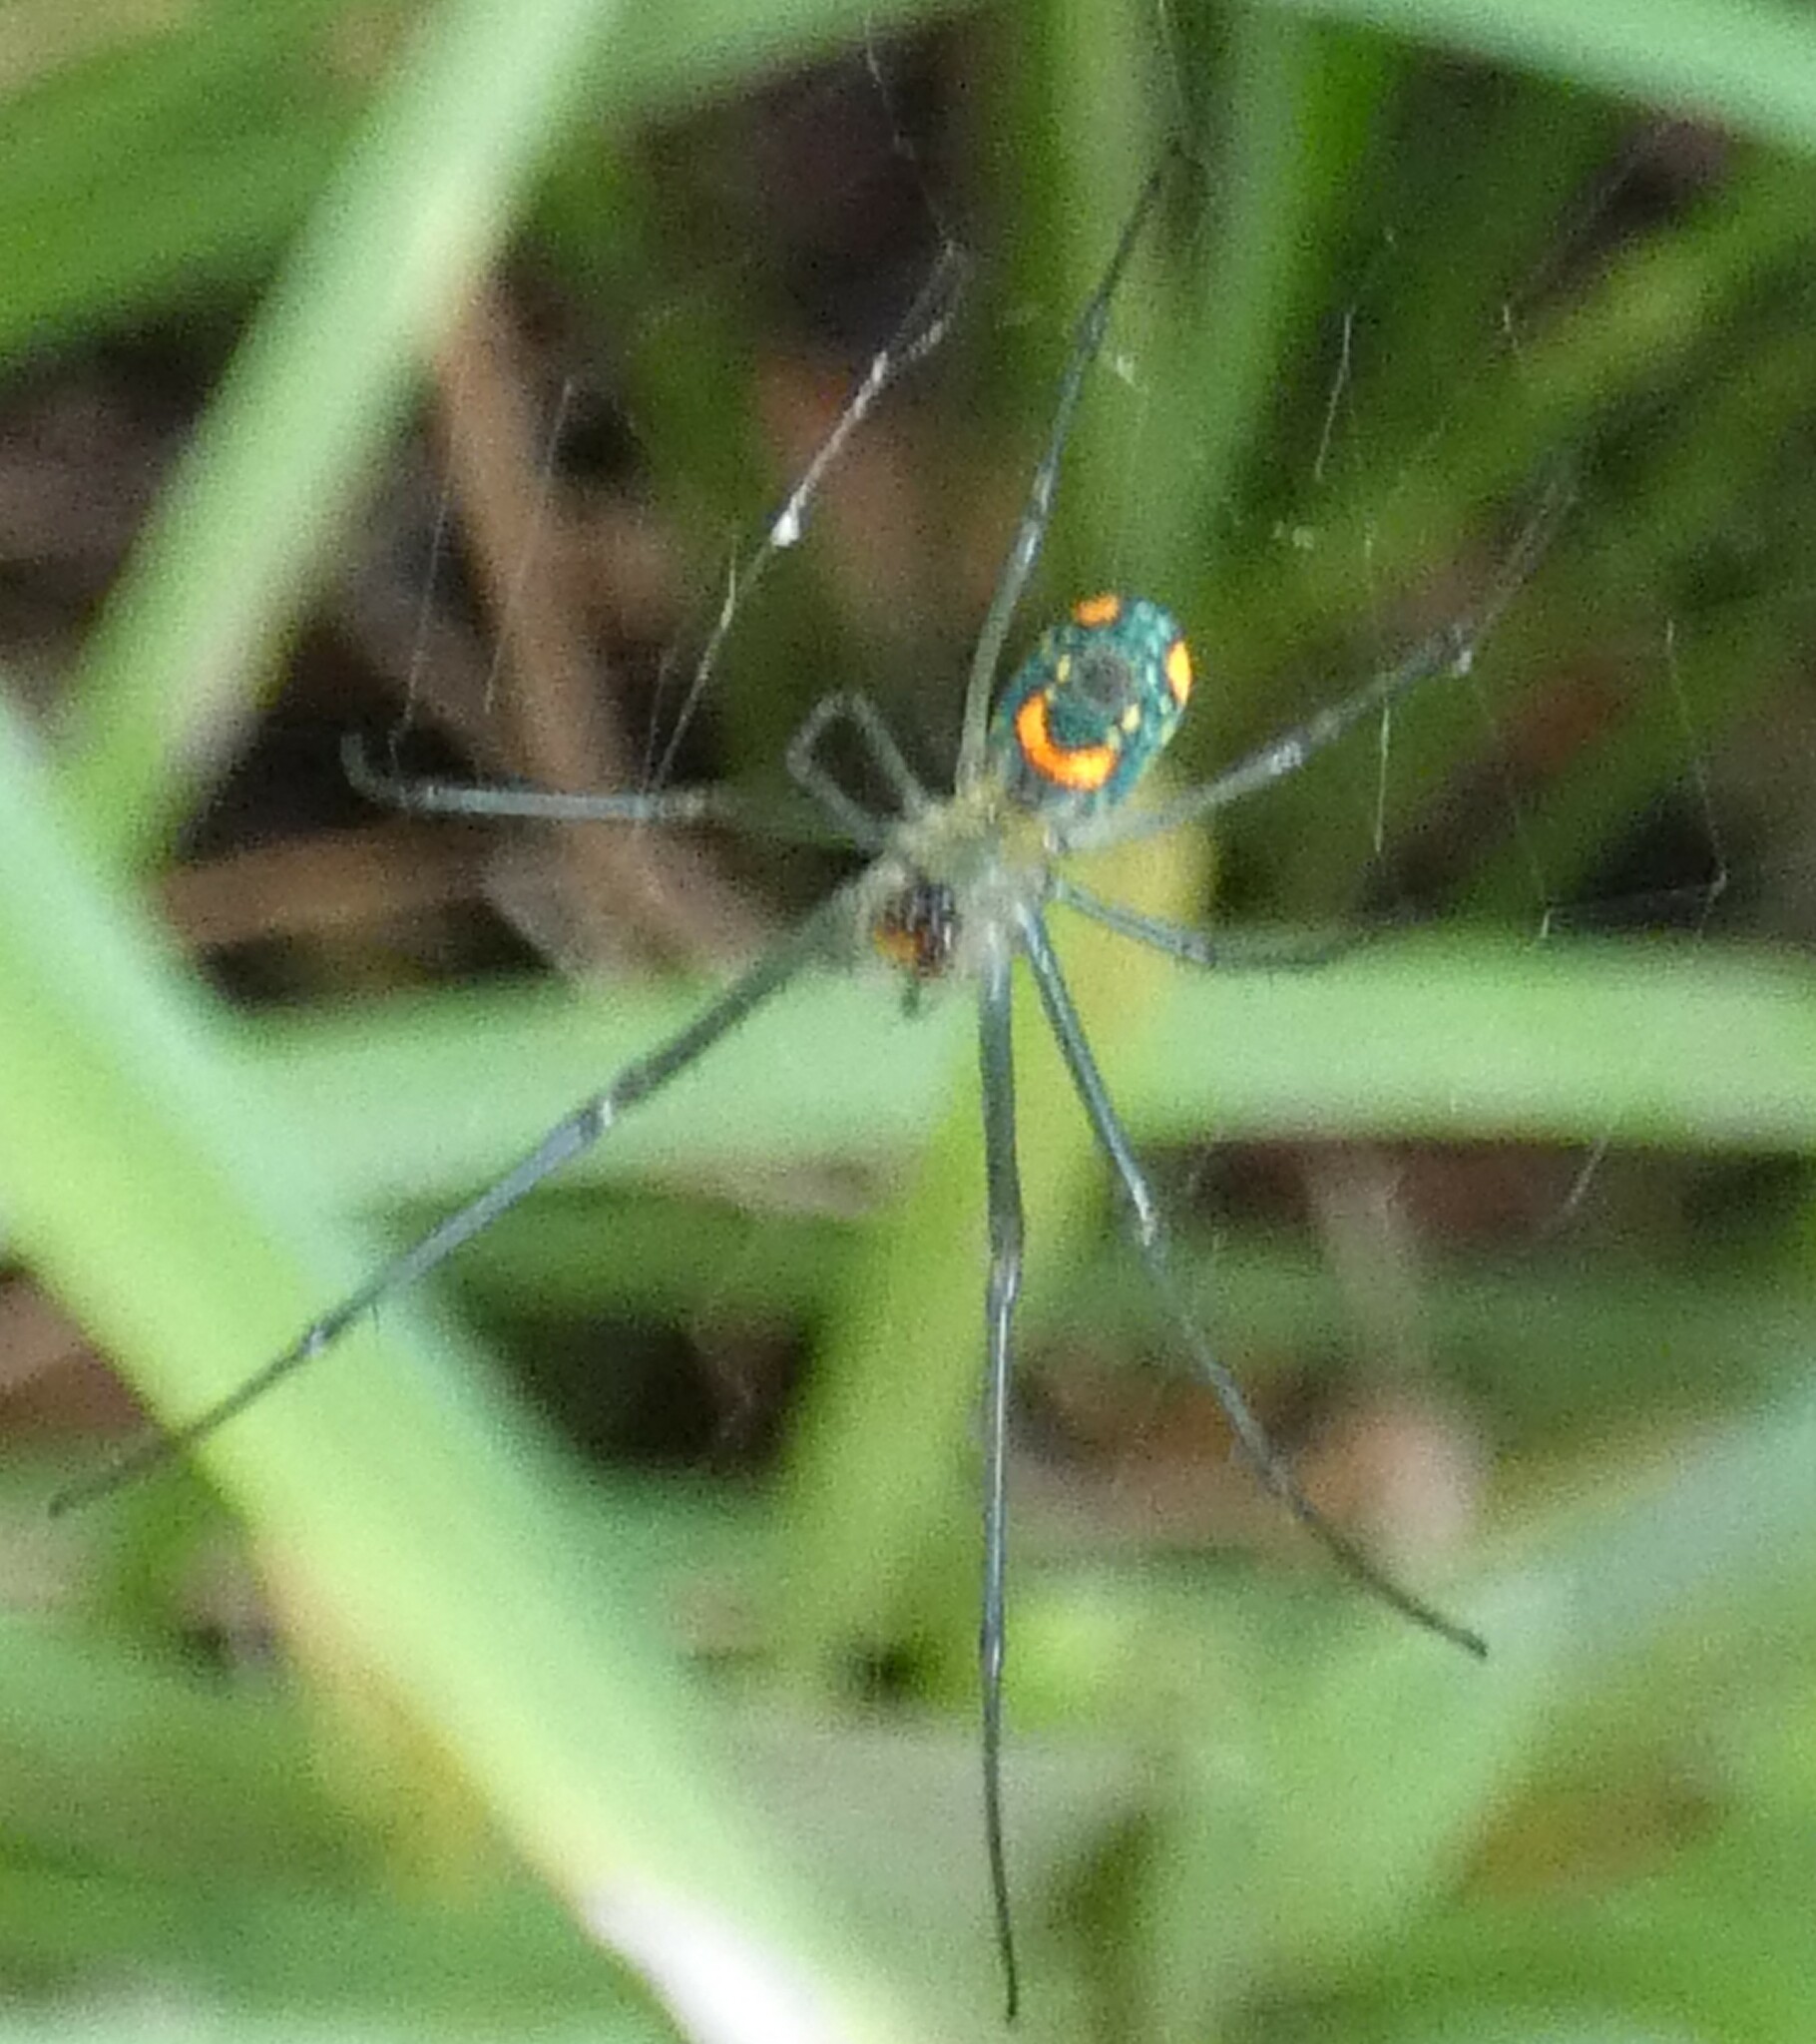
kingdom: Animalia
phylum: Arthropoda
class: Arachnida
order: Araneae
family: Tetragnathidae
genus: Leucauge
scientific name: Leucauge argyrobapta
